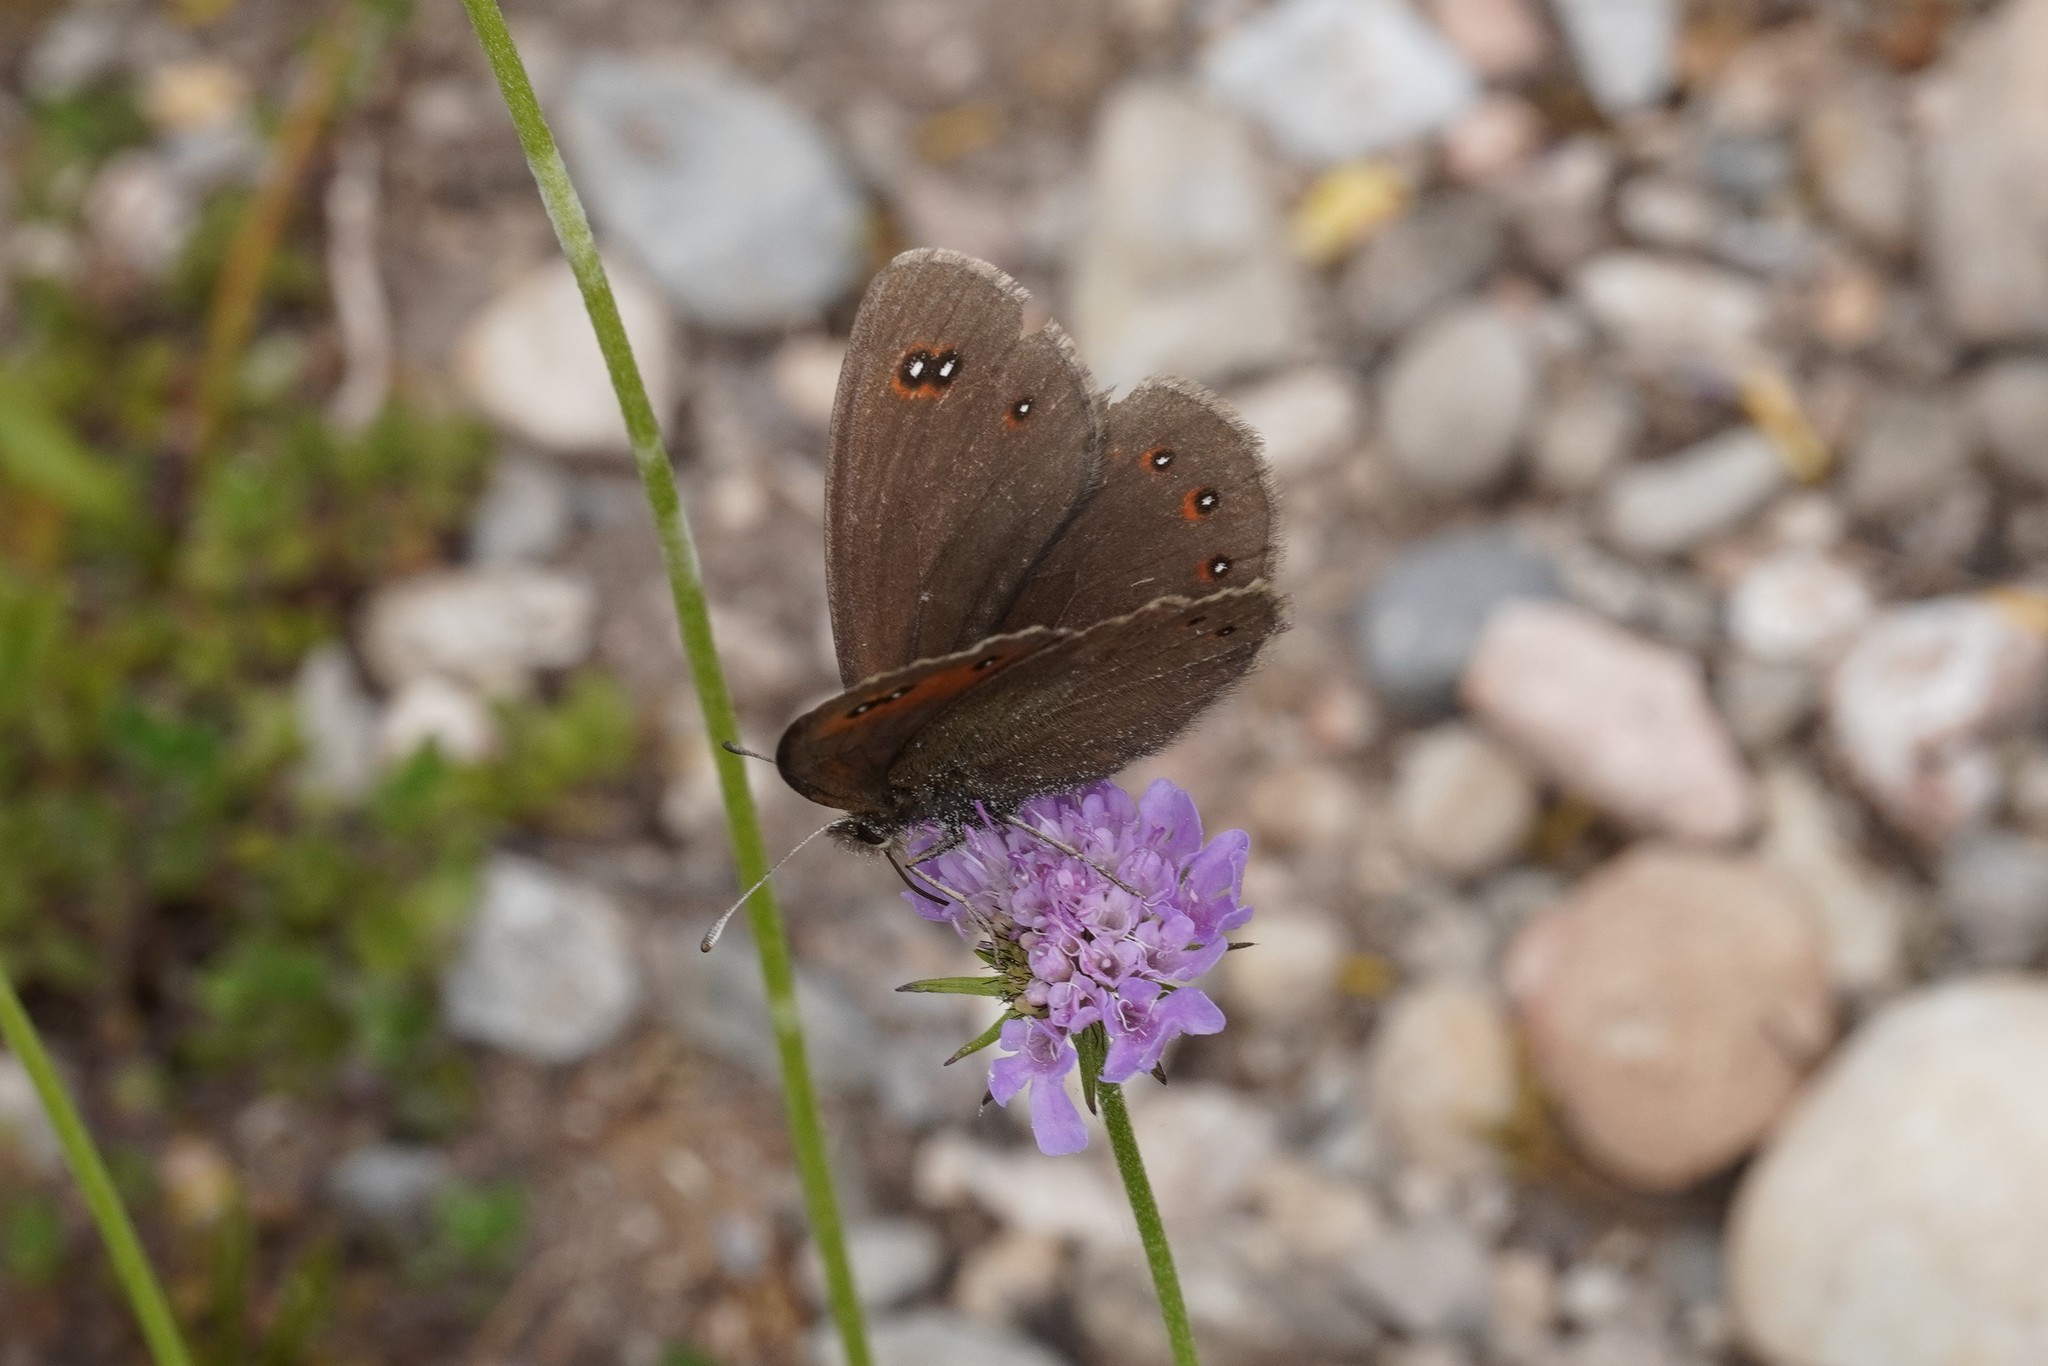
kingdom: Animalia
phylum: Arthropoda
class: Insecta
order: Lepidoptera
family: Nymphalidae
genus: Erebia
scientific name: Erebia meolans
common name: Piedmont ringlet
